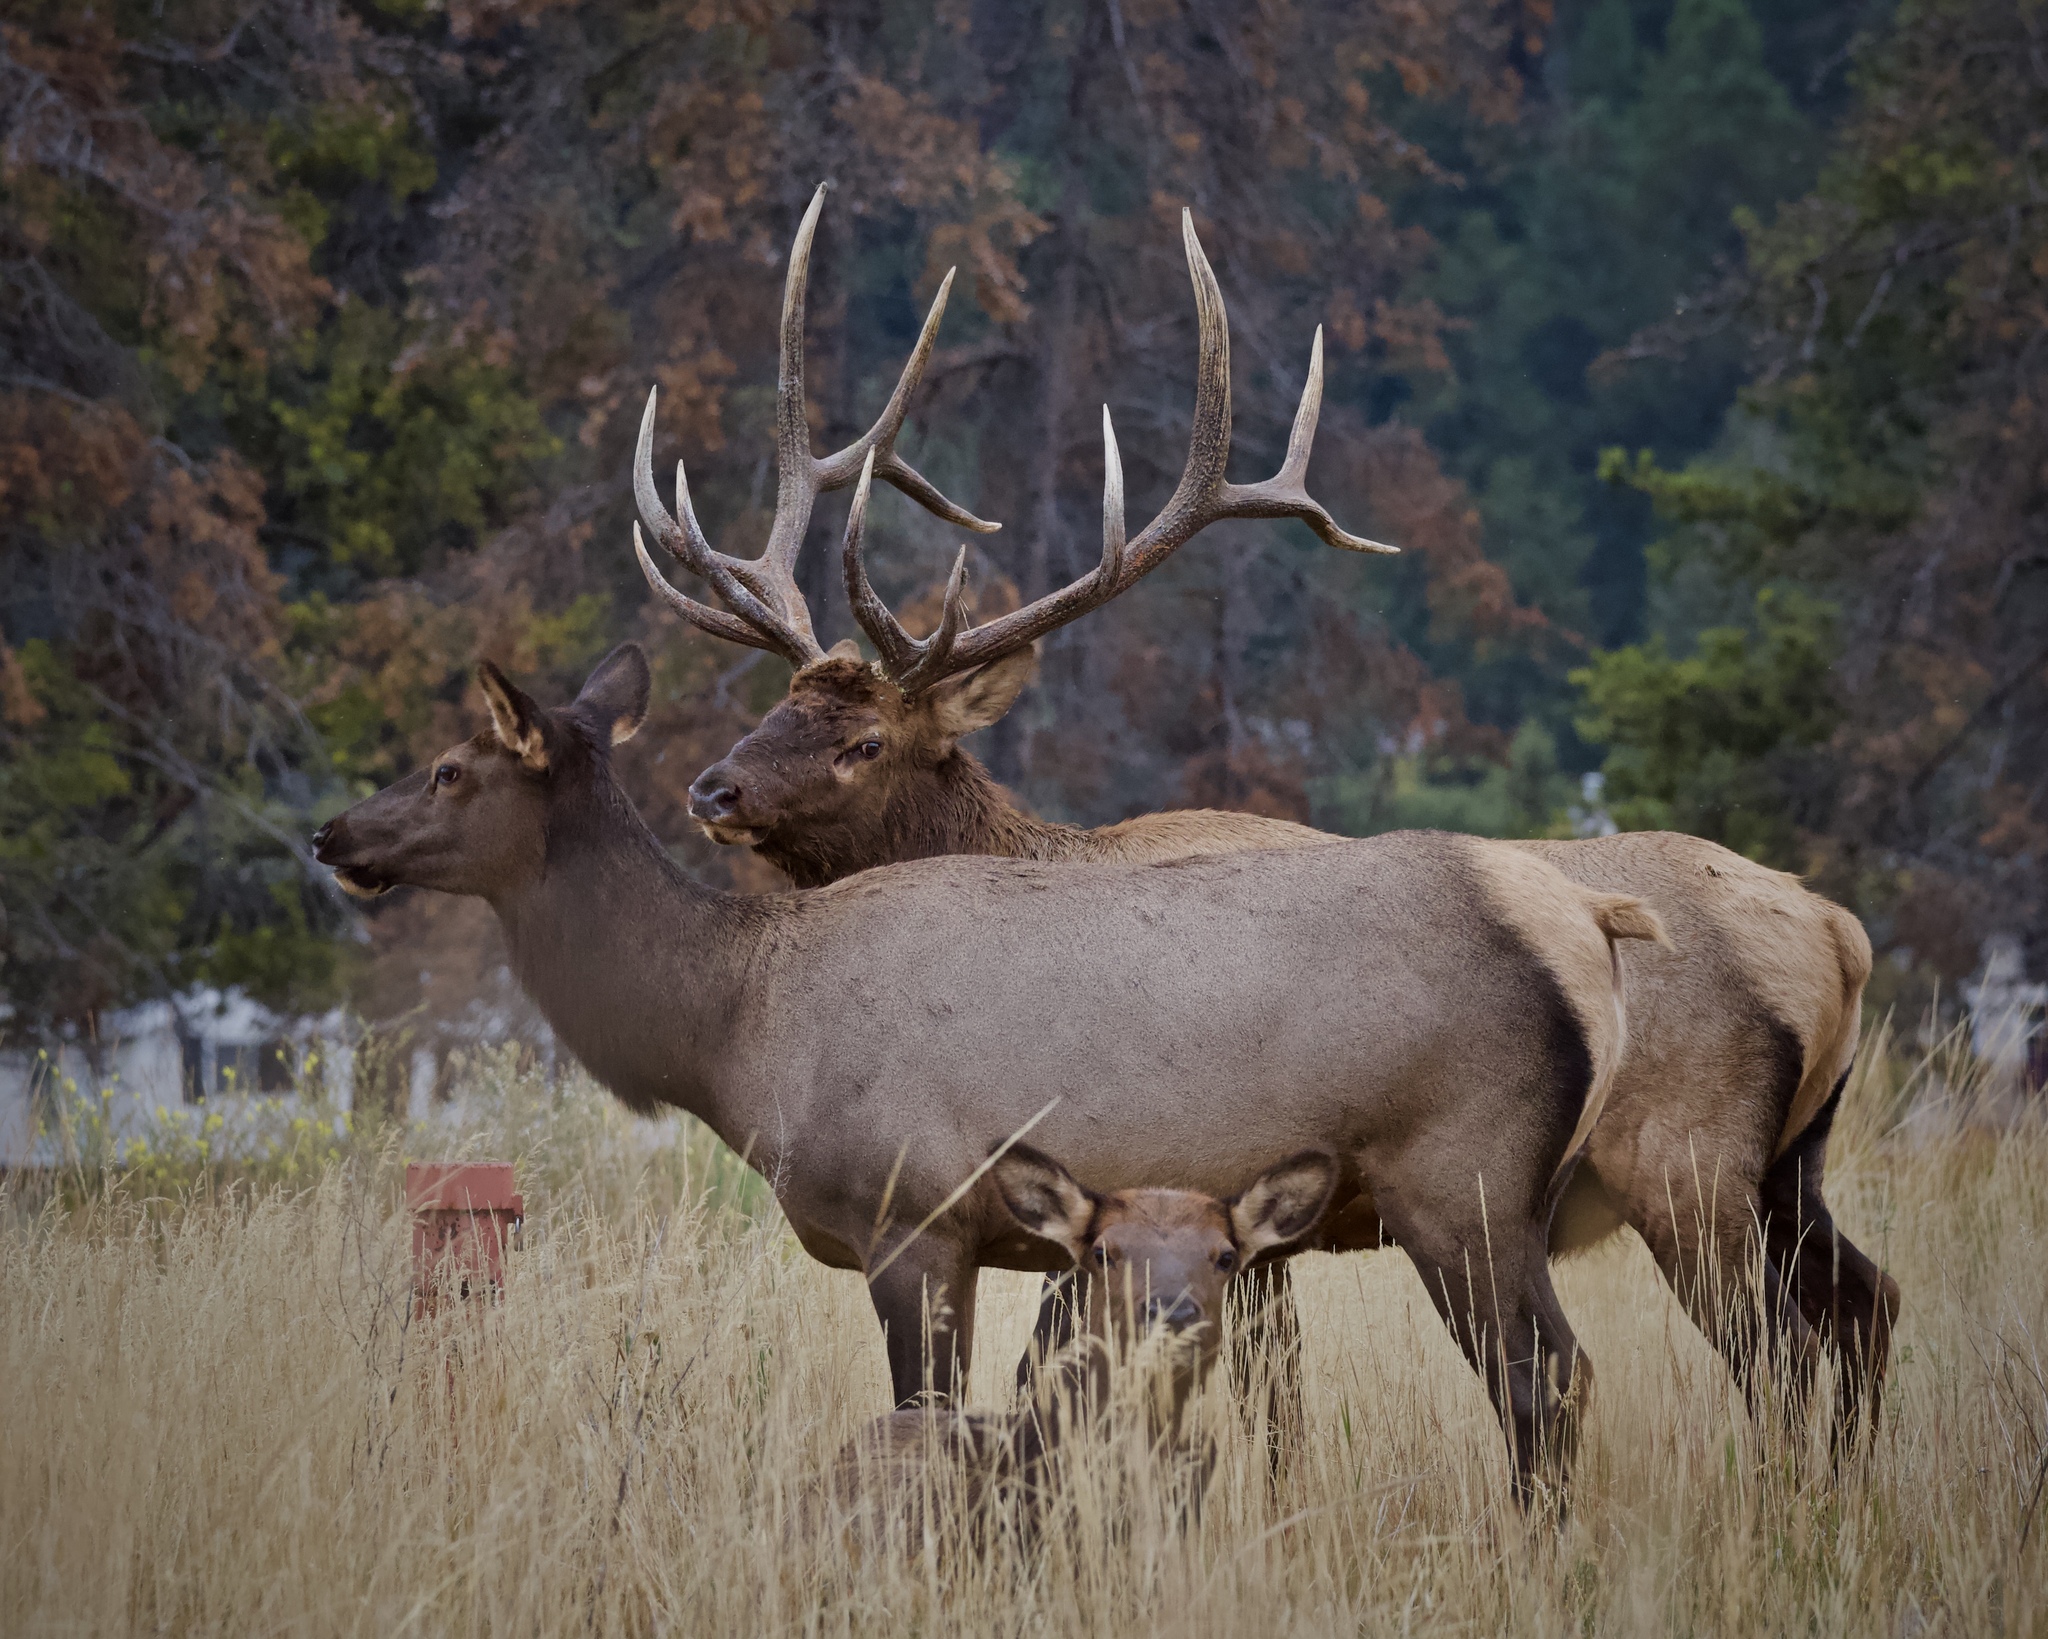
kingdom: Animalia
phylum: Chordata
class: Mammalia
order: Artiodactyla
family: Cervidae
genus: Cervus
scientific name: Cervus elaphus
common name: Red deer
